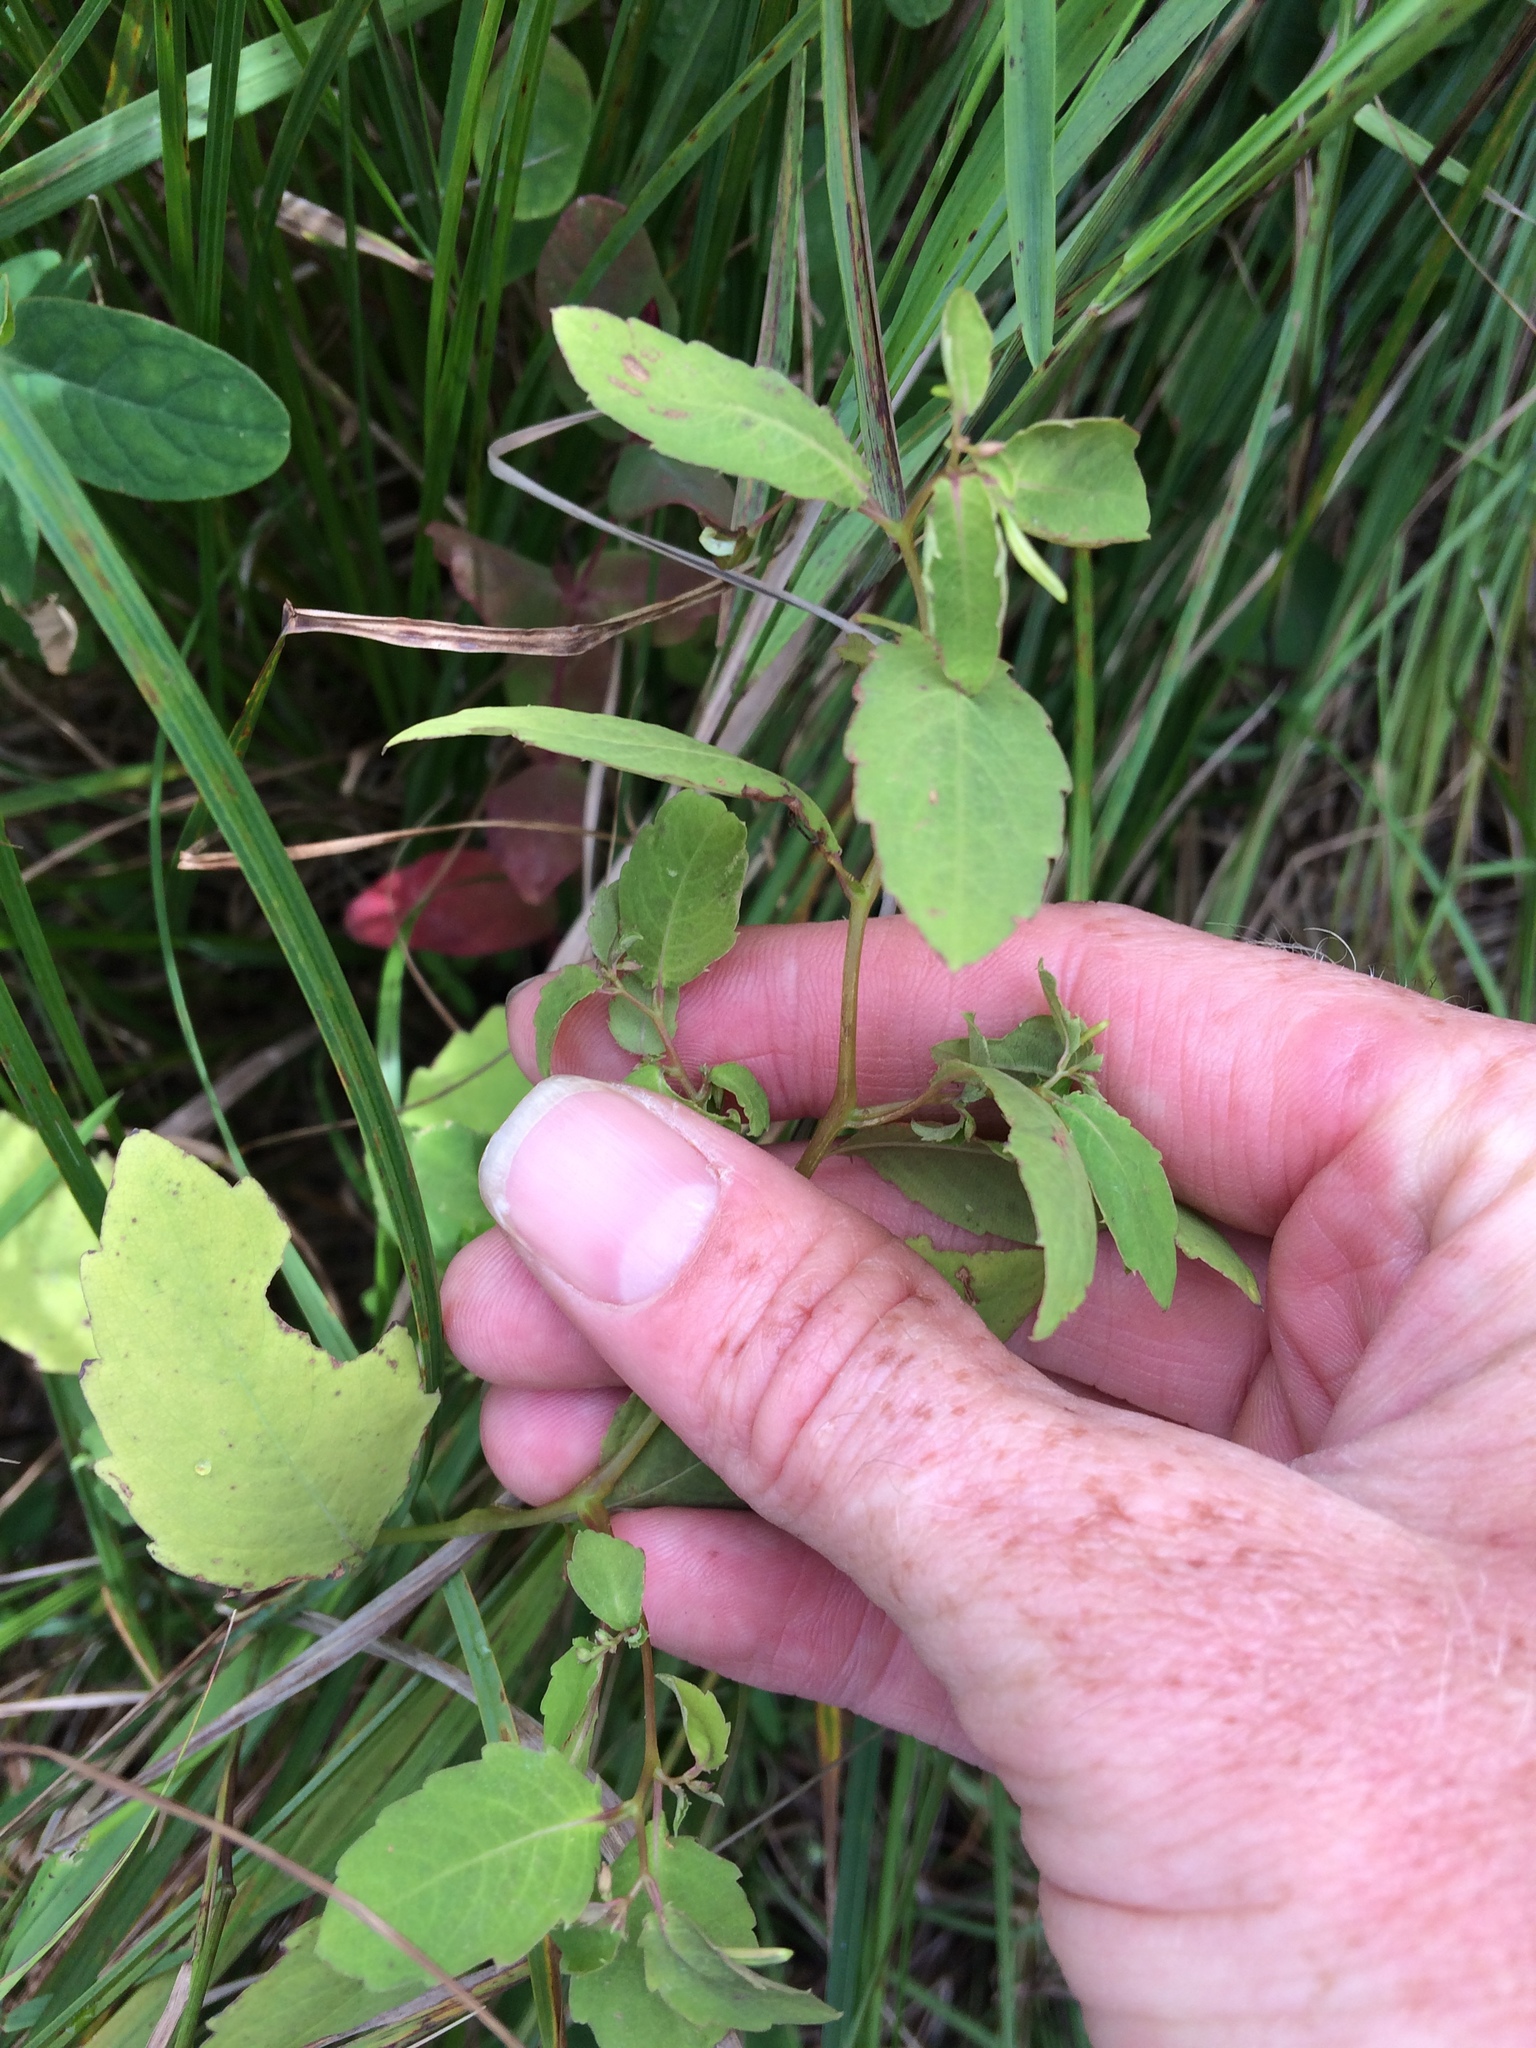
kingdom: Plantae
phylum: Tracheophyta
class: Magnoliopsida
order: Ericales
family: Balsaminaceae
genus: Impatiens
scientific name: Impatiens capensis
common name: Orange balsam
